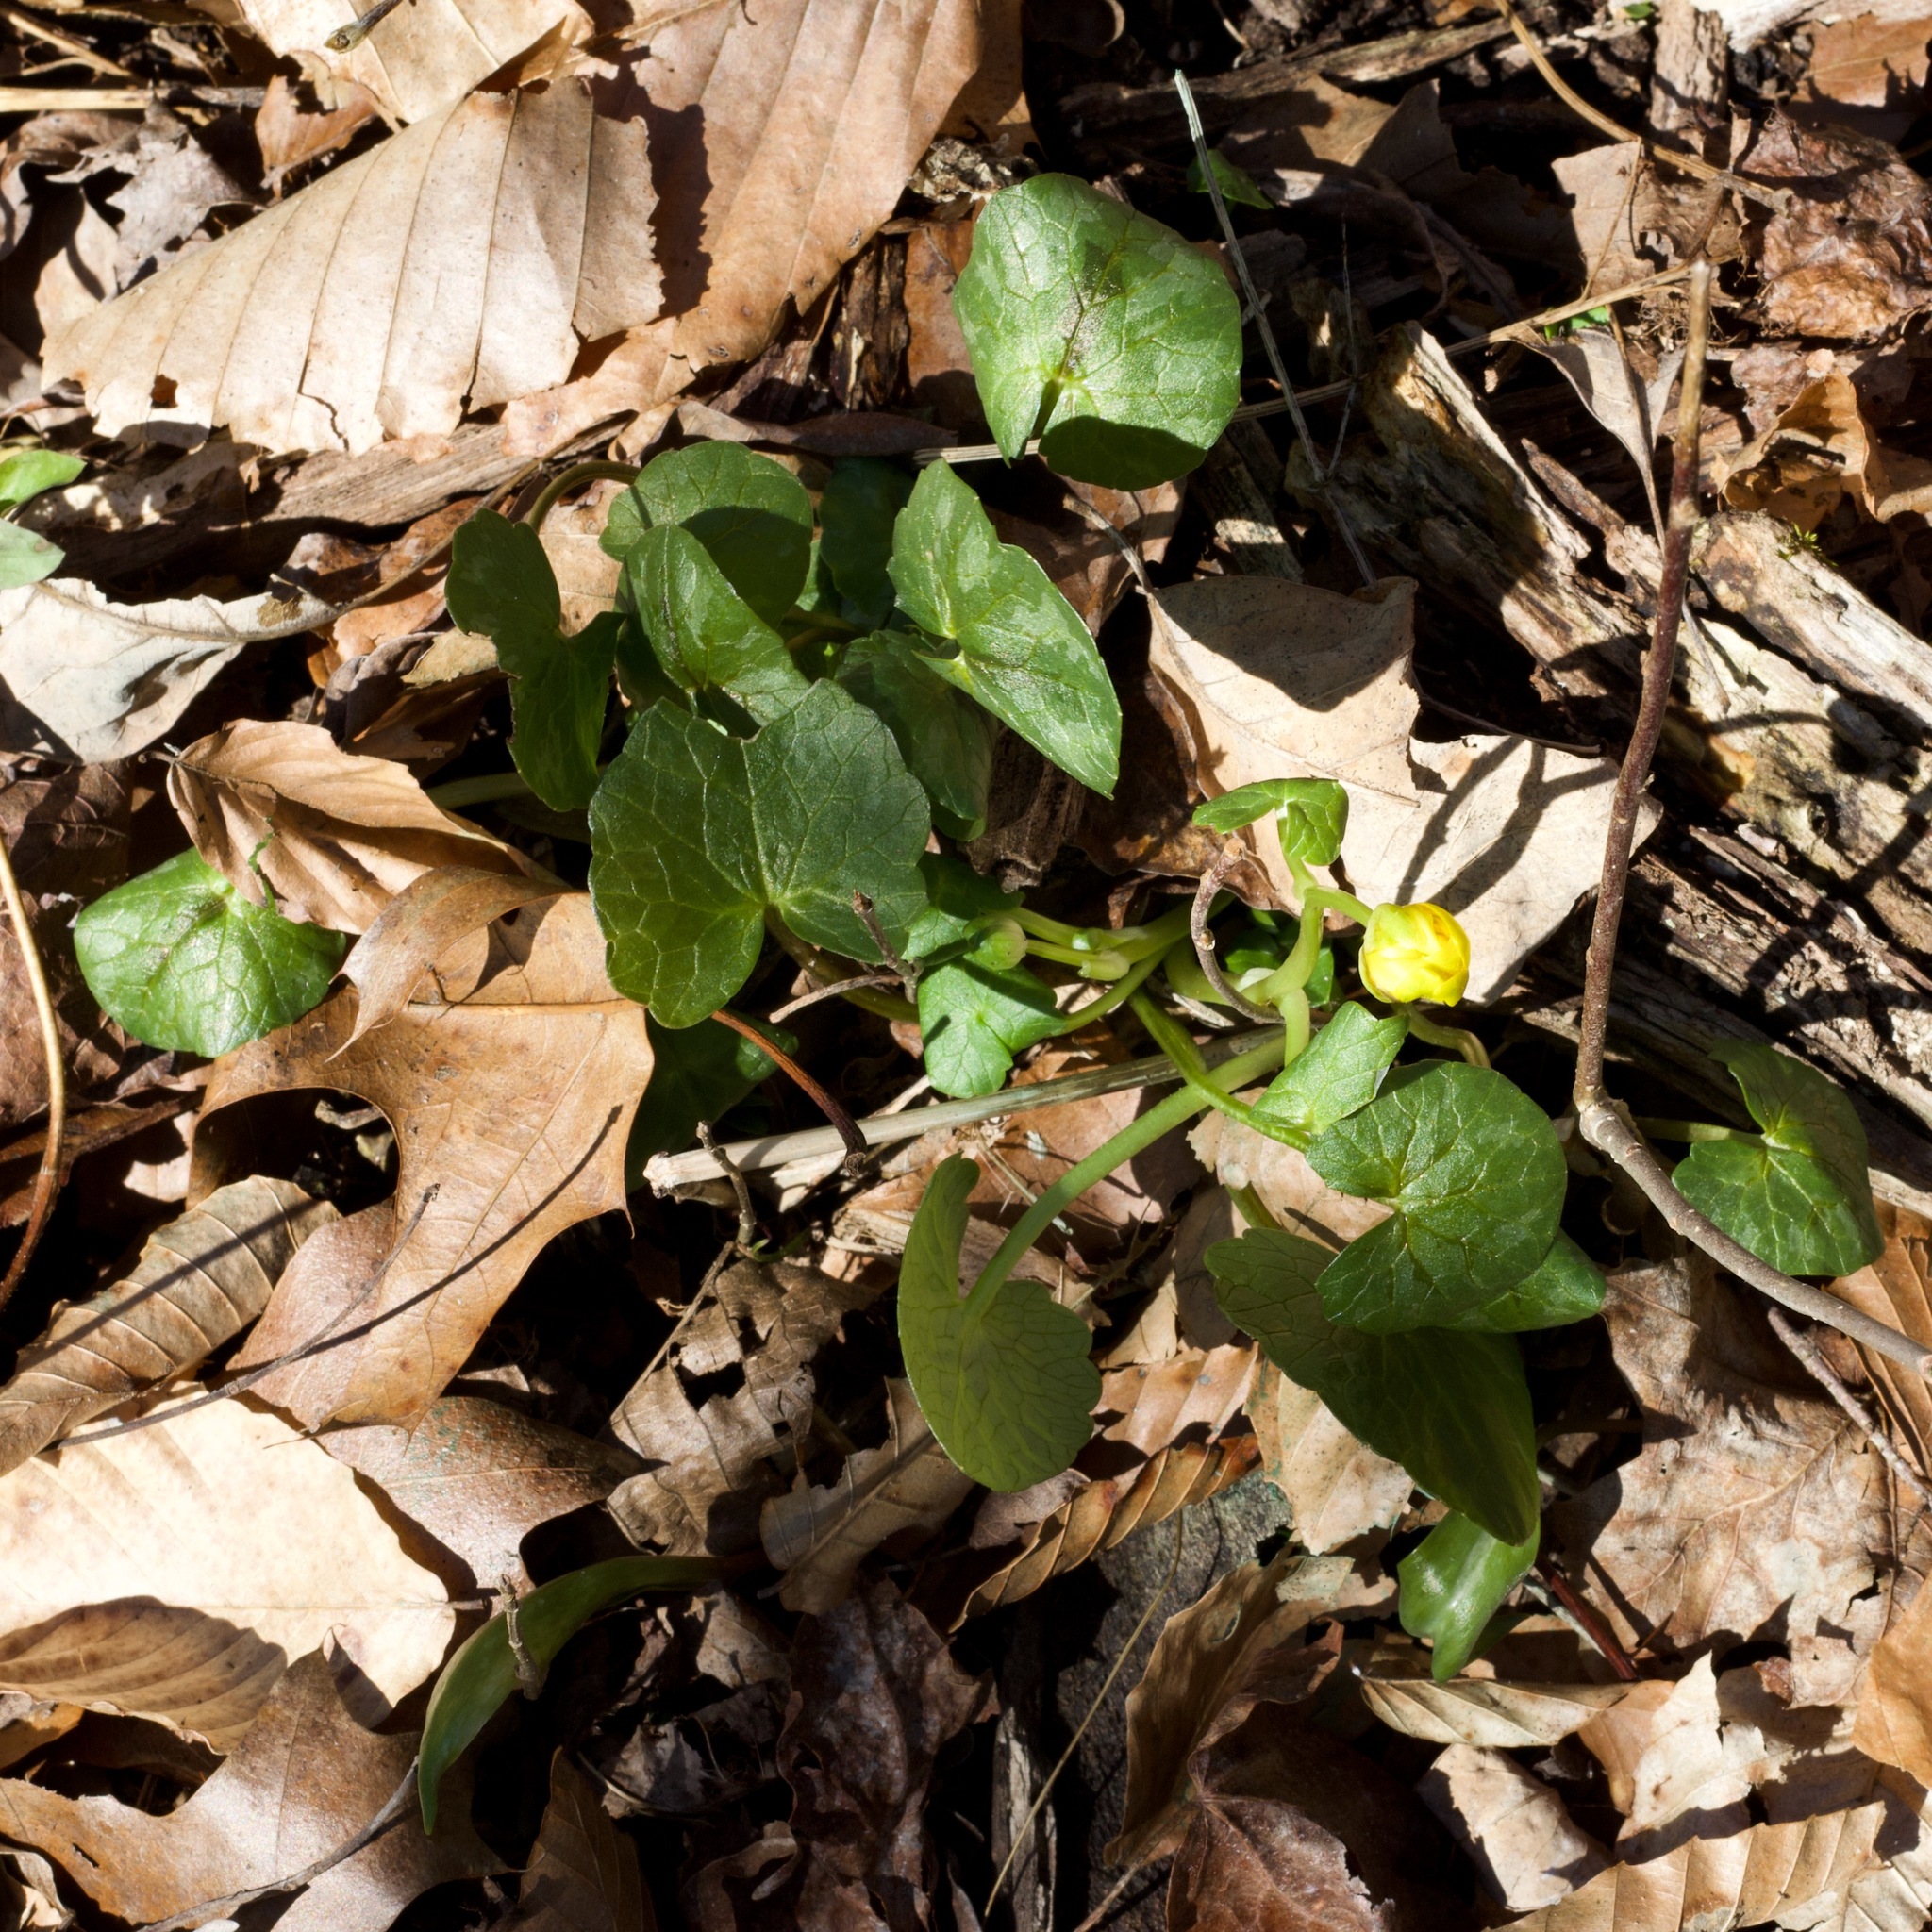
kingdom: Plantae
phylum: Tracheophyta
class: Magnoliopsida
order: Ranunculales
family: Ranunculaceae
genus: Ficaria
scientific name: Ficaria verna
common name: Lesser celandine
